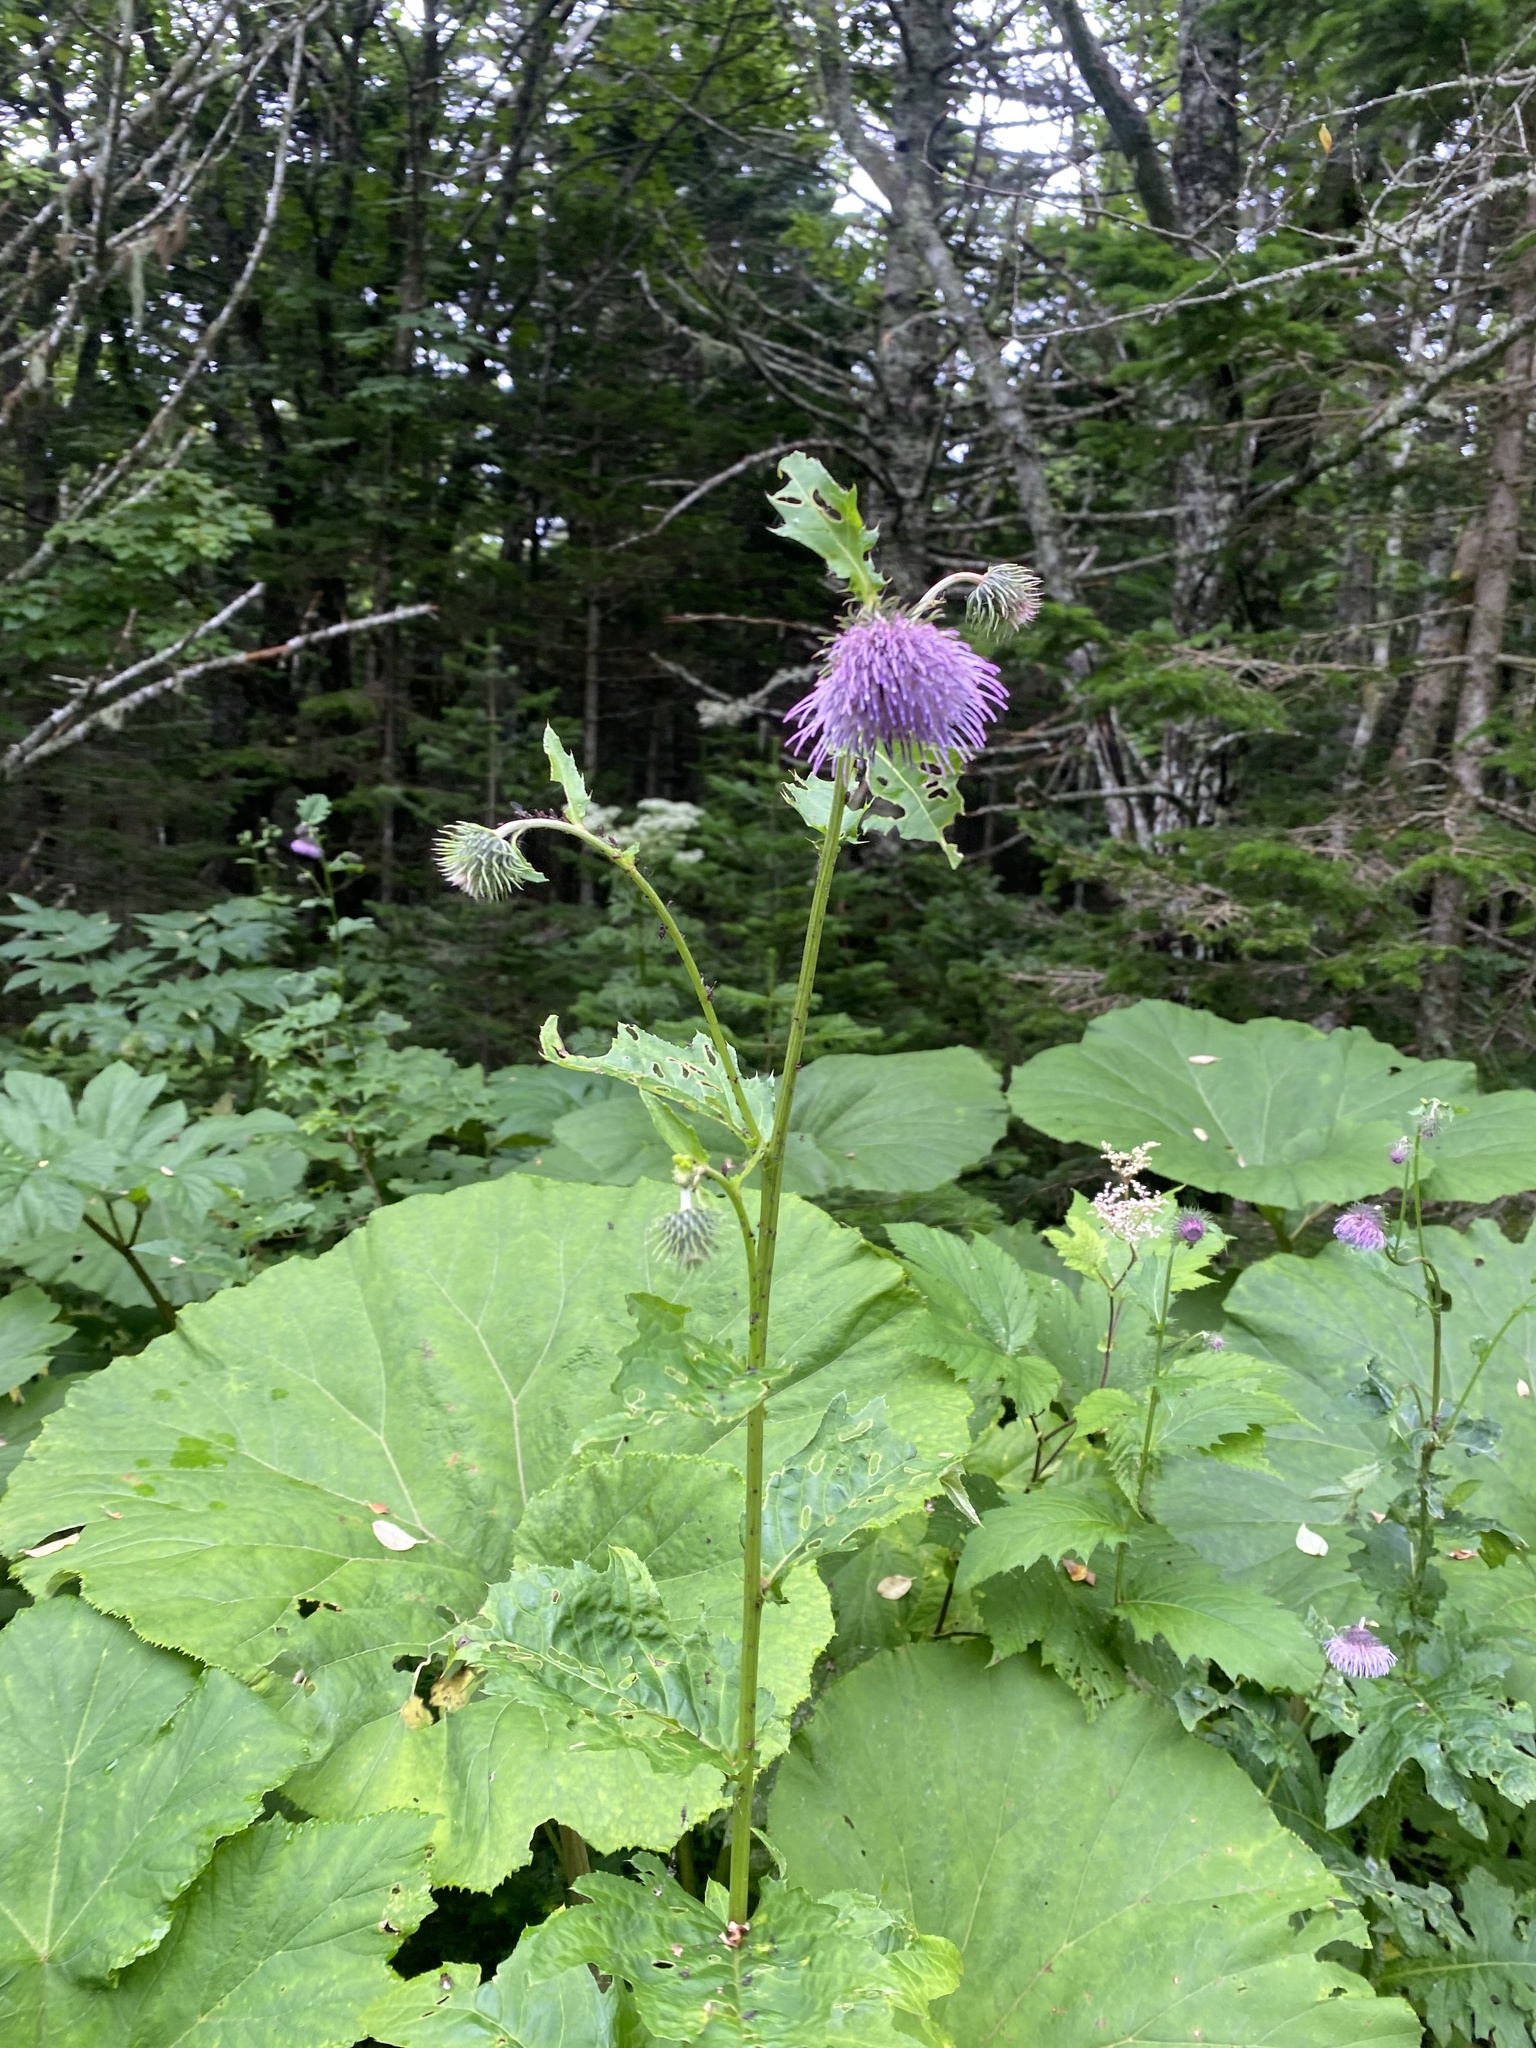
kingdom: Plantae
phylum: Tracheophyta
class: Magnoliopsida
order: Asterales
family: Asteraceae
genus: Cirsium
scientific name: Cirsium kamtschaticum
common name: Kamchatka thistle
